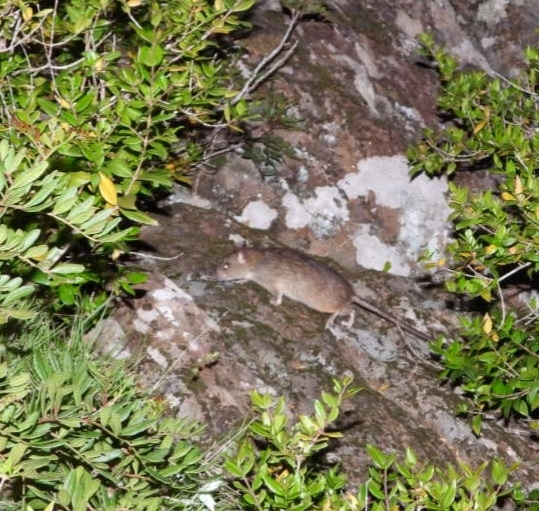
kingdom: Animalia
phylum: Chordata
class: Mammalia
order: Rodentia
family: Muridae
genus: Rattus
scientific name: Rattus rattus
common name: Black rat
